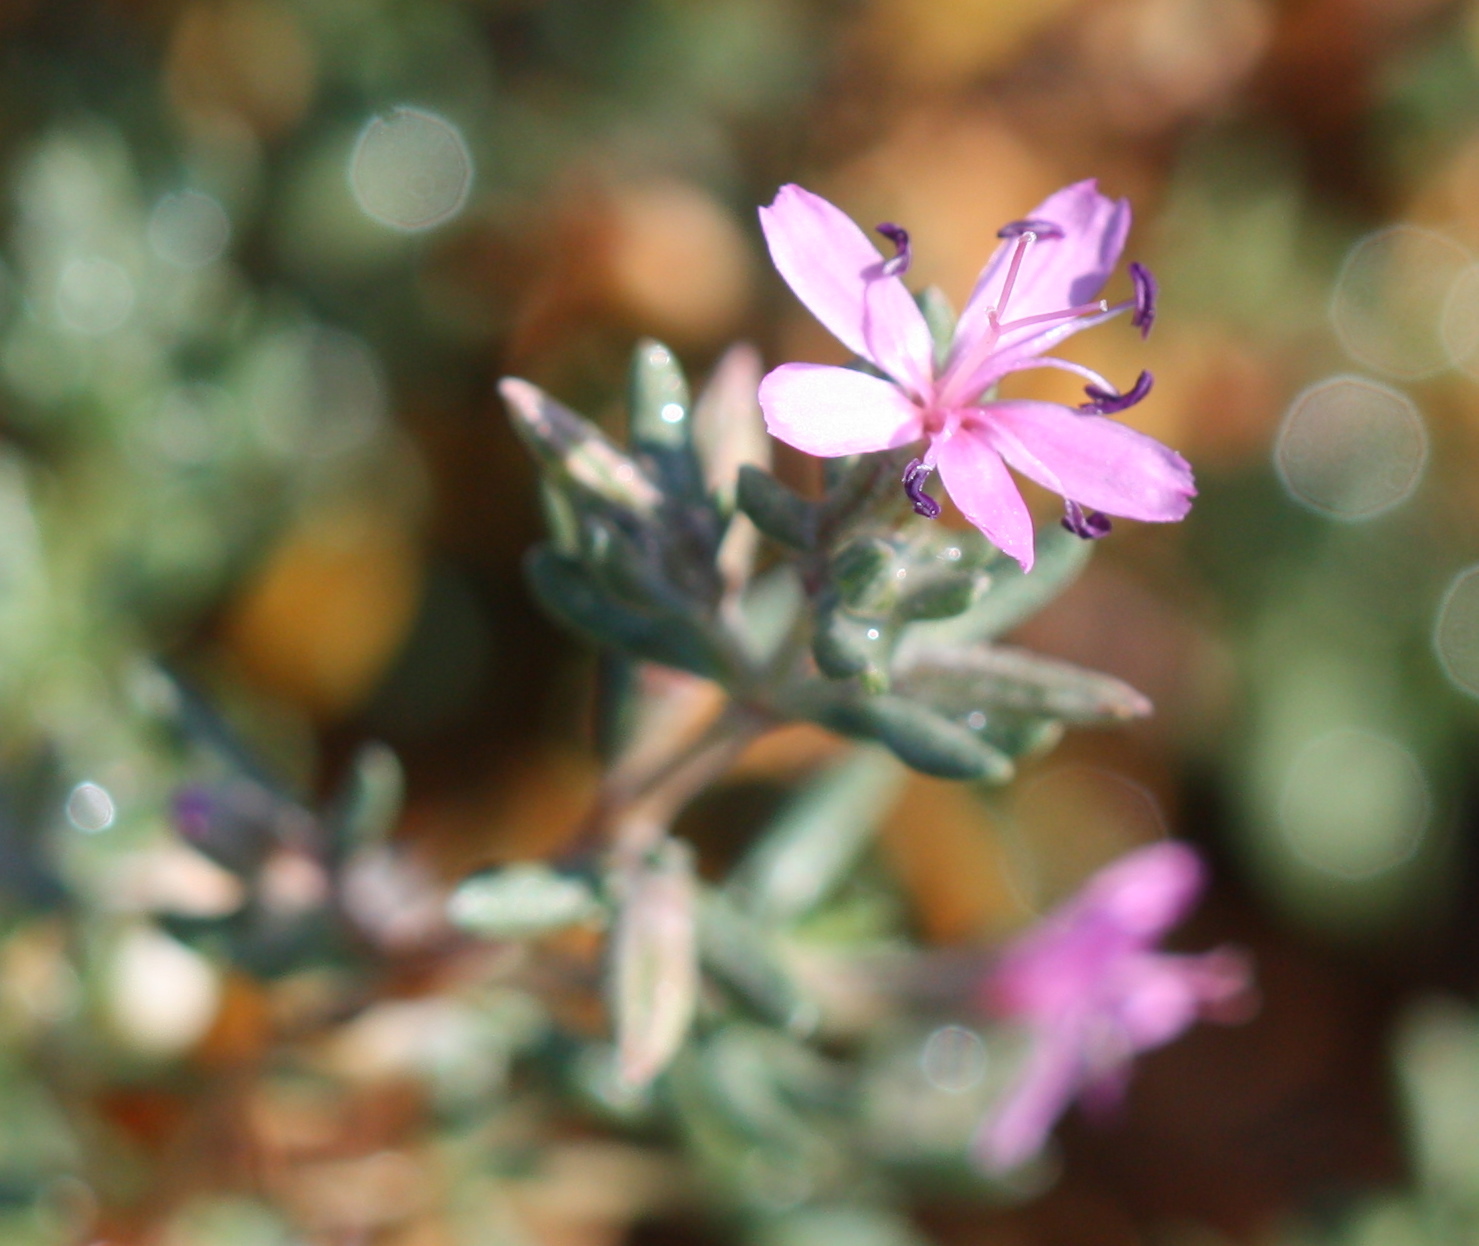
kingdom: Plantae
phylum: Tracheophyta
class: Magnoliopsida
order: Caryophyllales
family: Frankeniaceae
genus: Frankenia
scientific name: Frankenia salina
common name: Alkali seaheath
